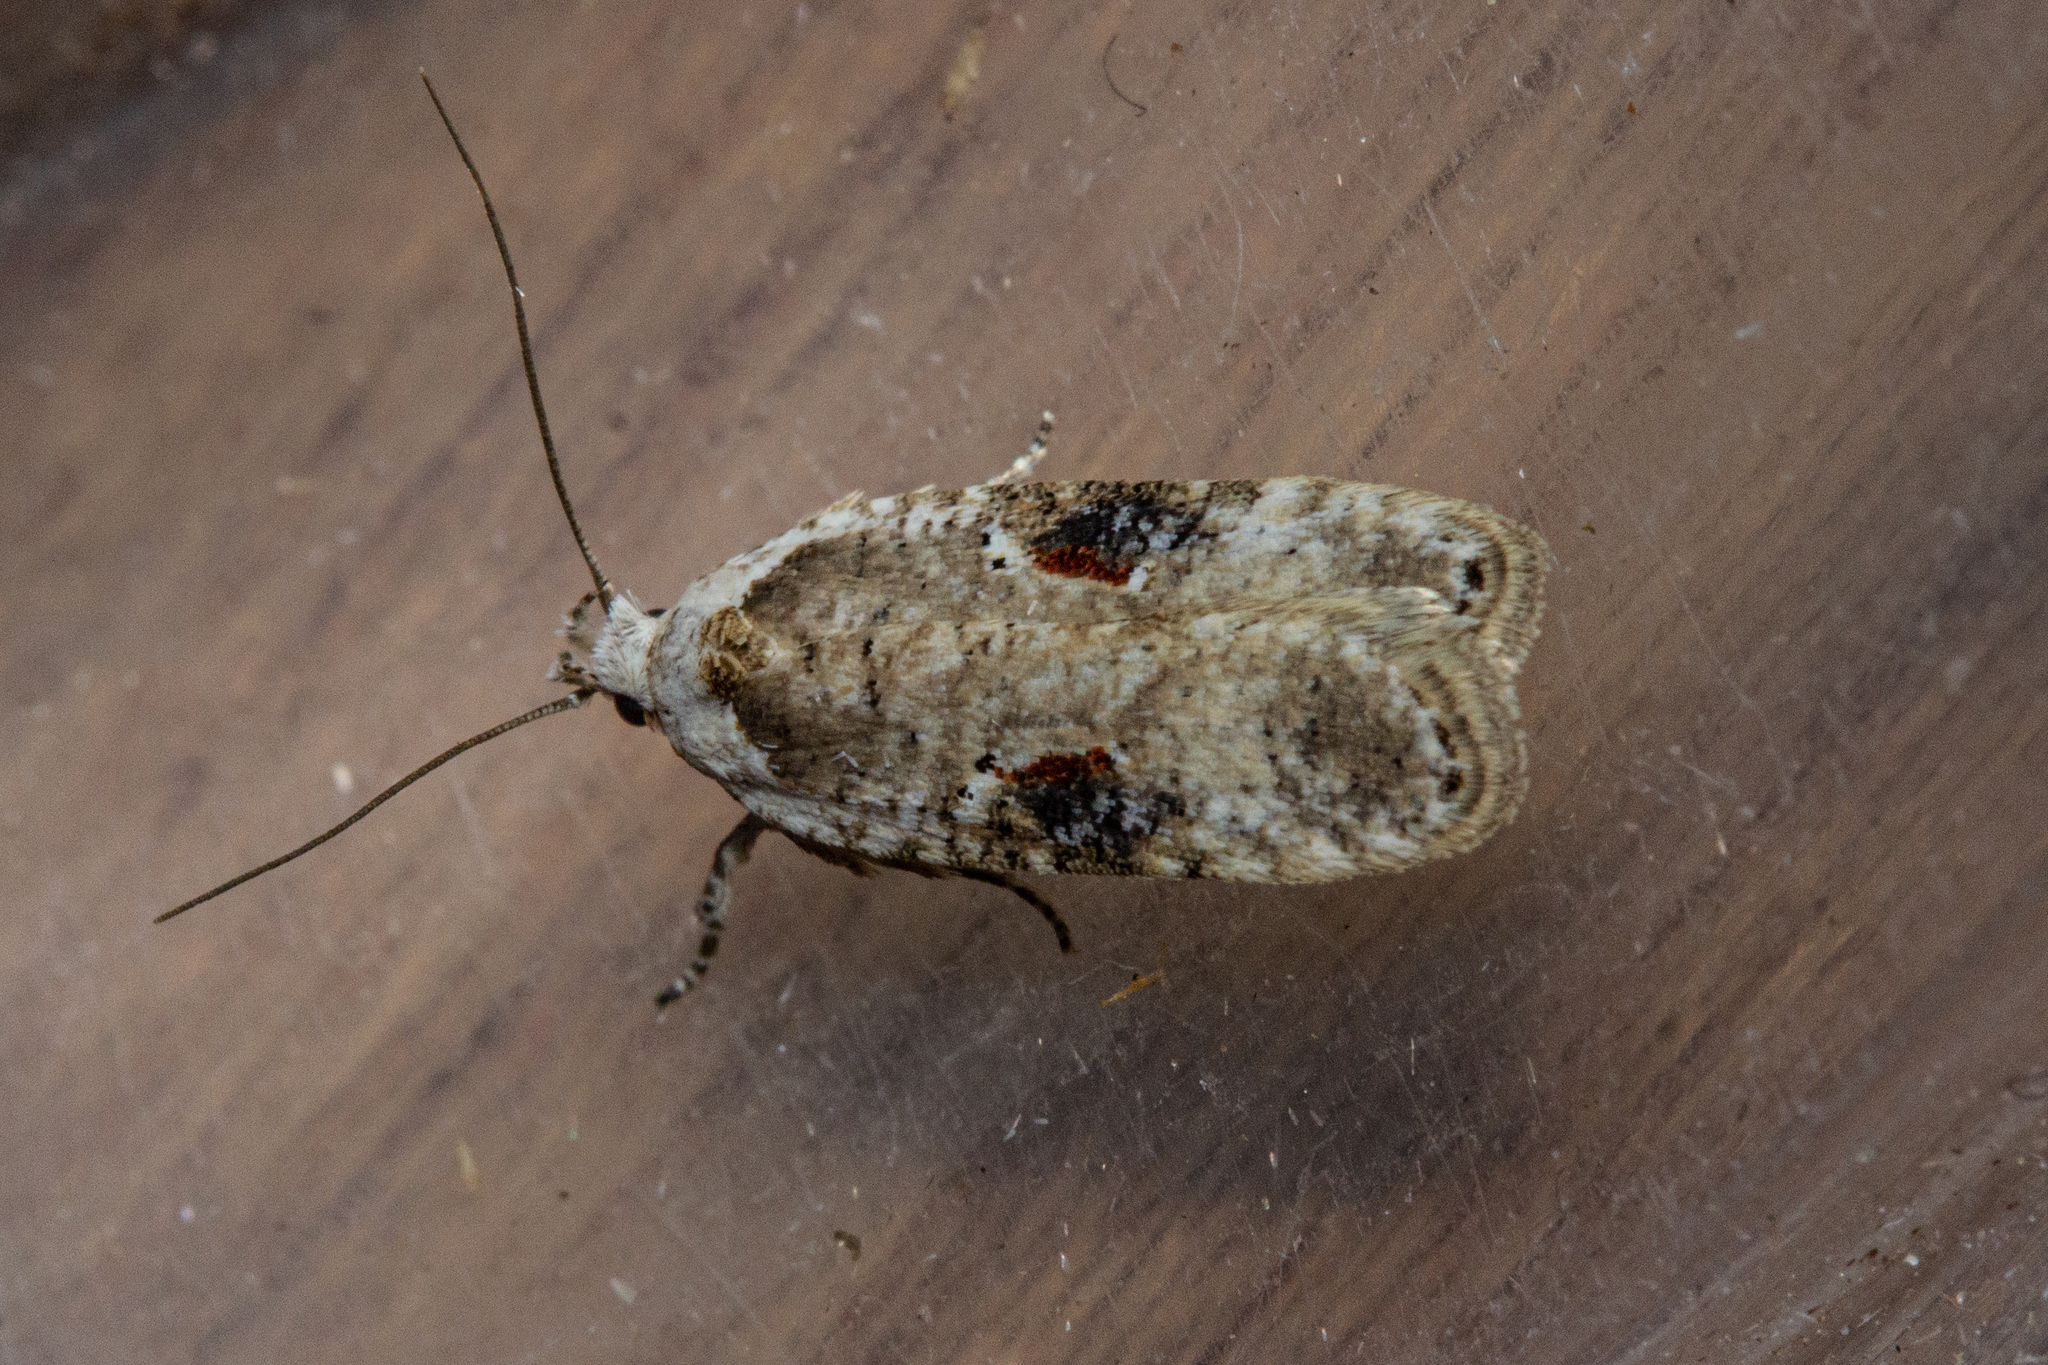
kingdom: Animalia
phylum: Arthropoda
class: Insecta
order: Lepidoptera
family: Depressariidae
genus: Agonopterix
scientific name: Agonopterix alstroemeriana
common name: Moth
